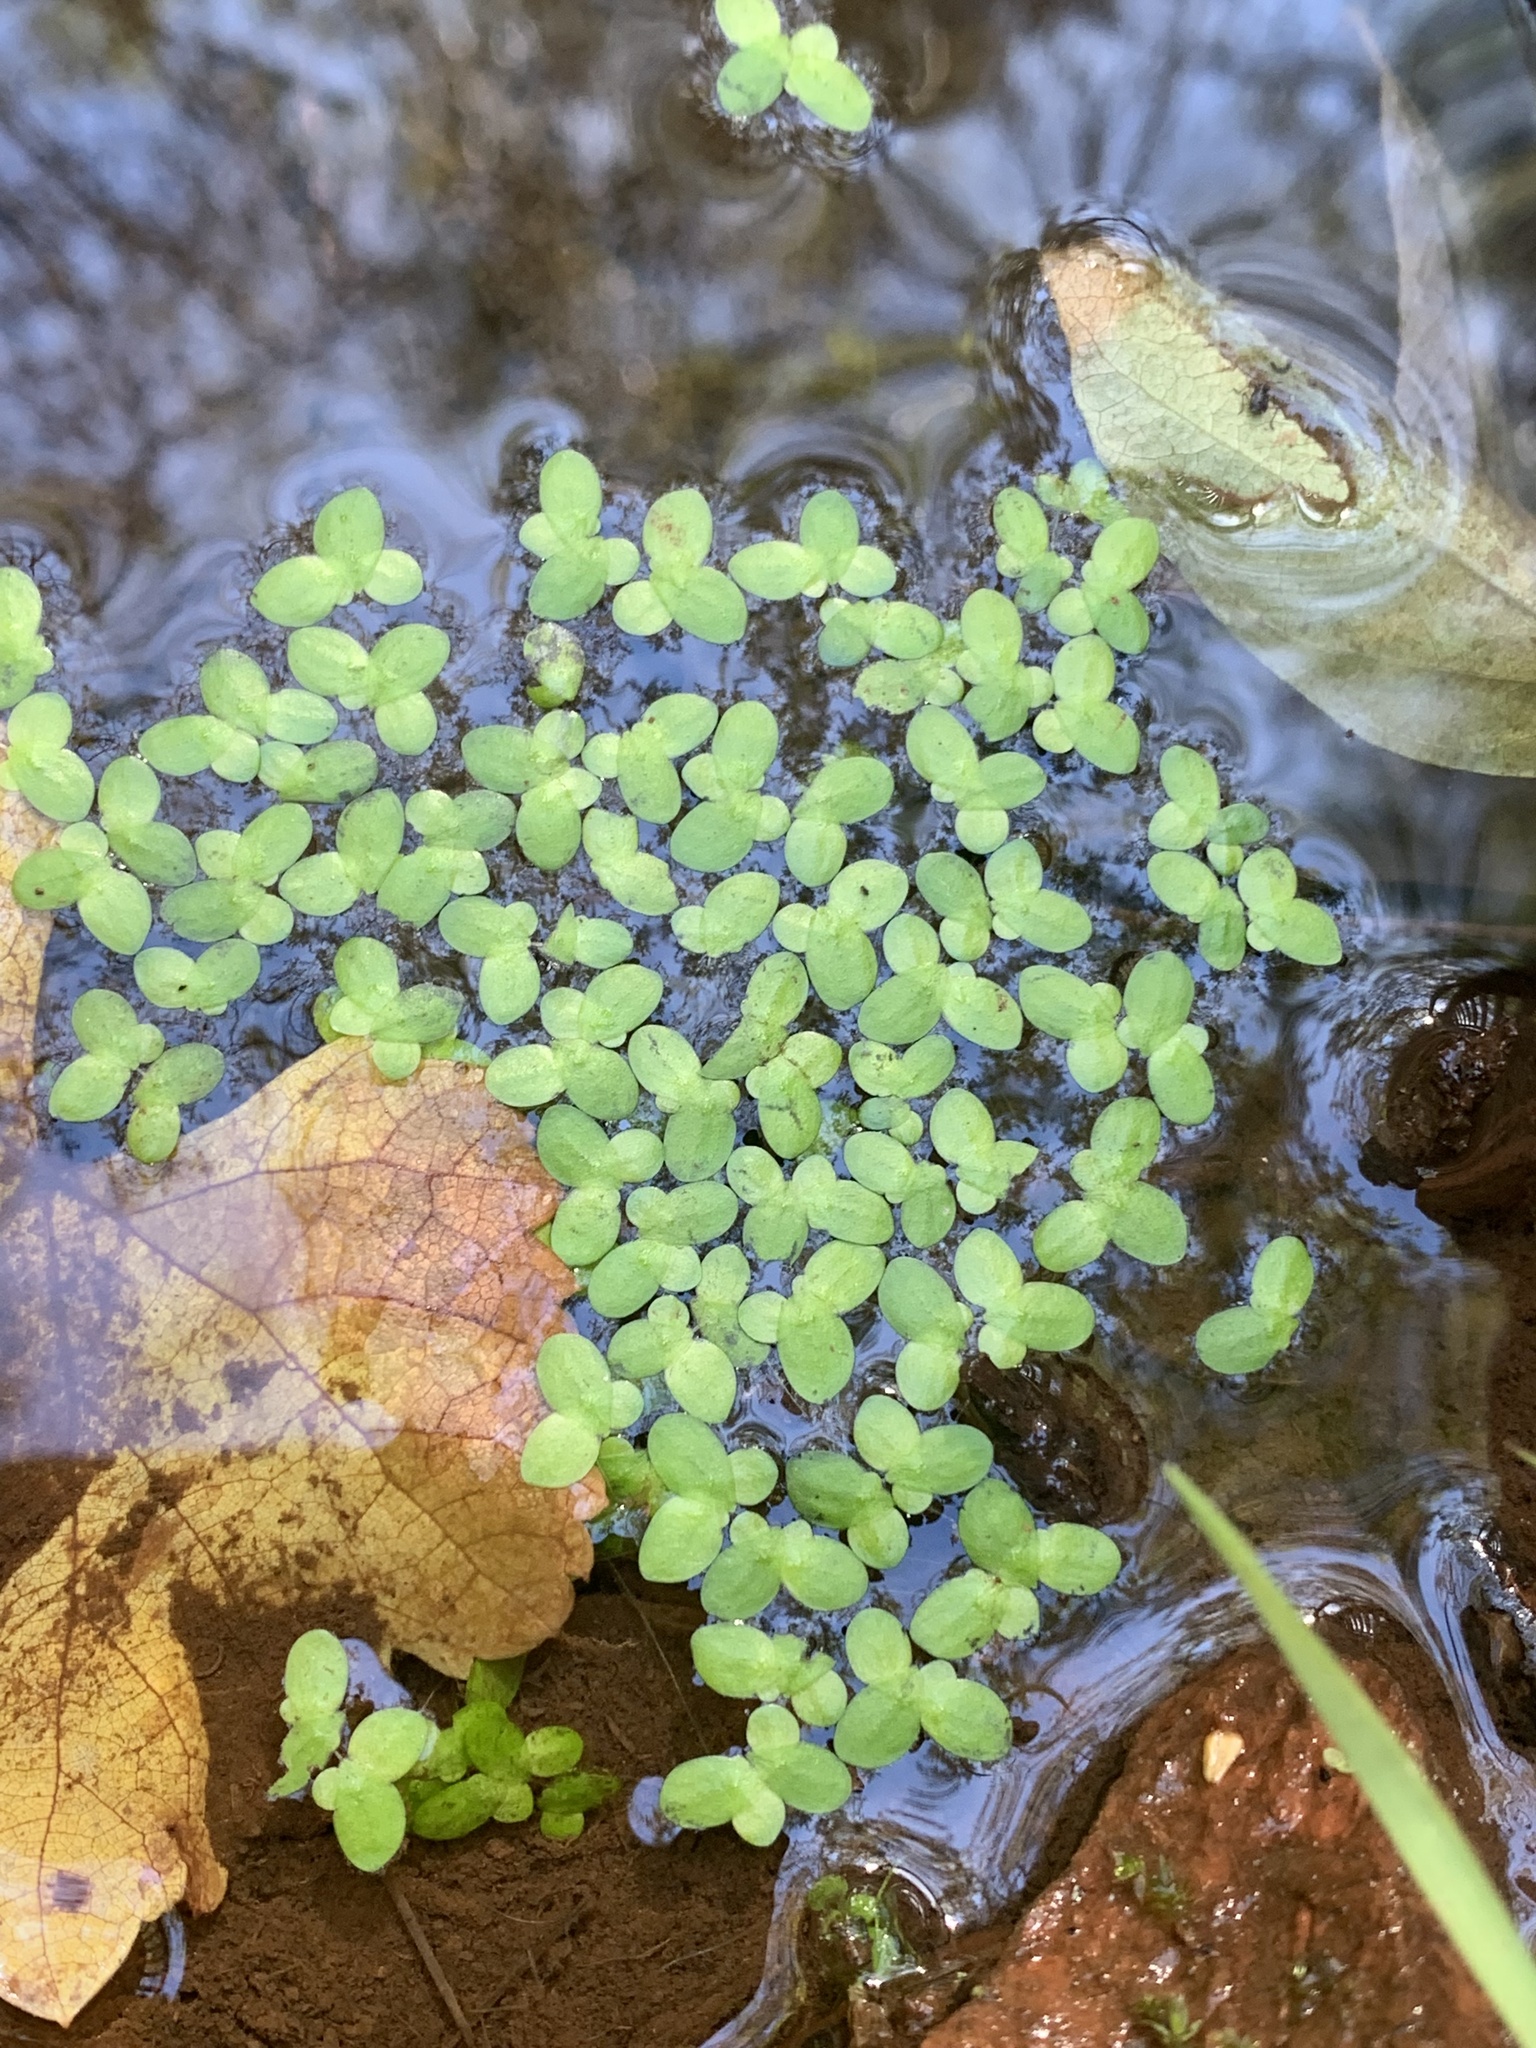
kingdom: Plantae
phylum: Tracheophyta
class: Liliopsida
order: Alismatales
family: Araceae
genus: Lemna
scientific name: Lemna minor
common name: Common duckweed
